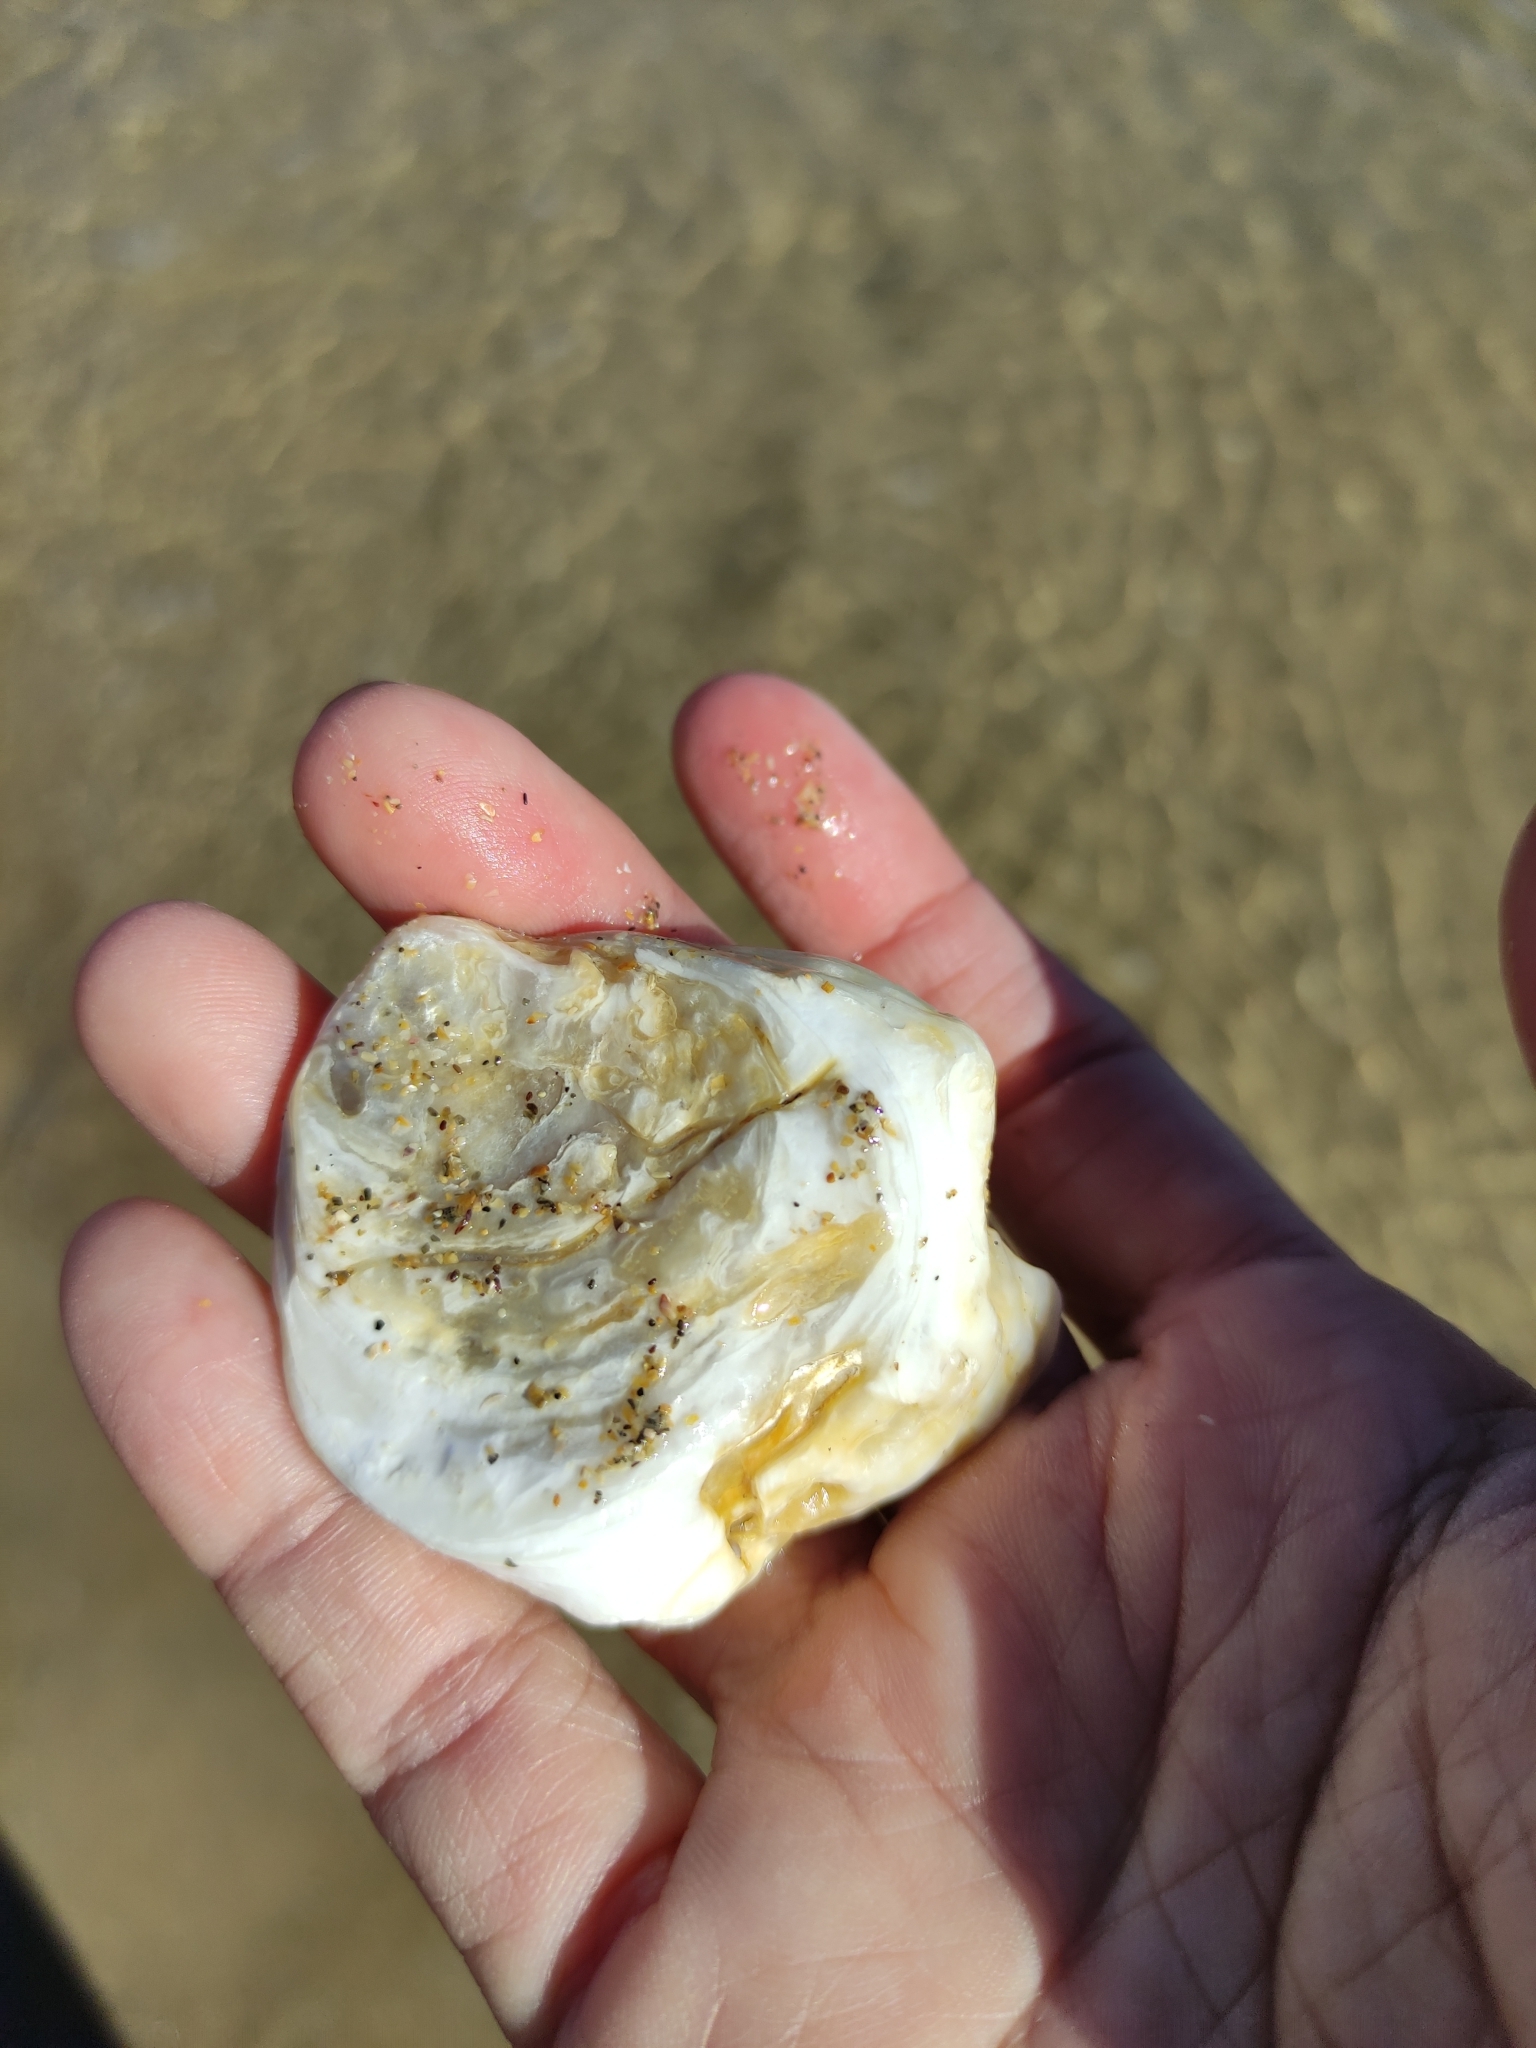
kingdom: Animalia
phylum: Mollusca
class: Bivalvia
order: Ostreida
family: Ostreidae
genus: Ostrea
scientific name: Ostrea chilensis
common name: Chilean oyster
